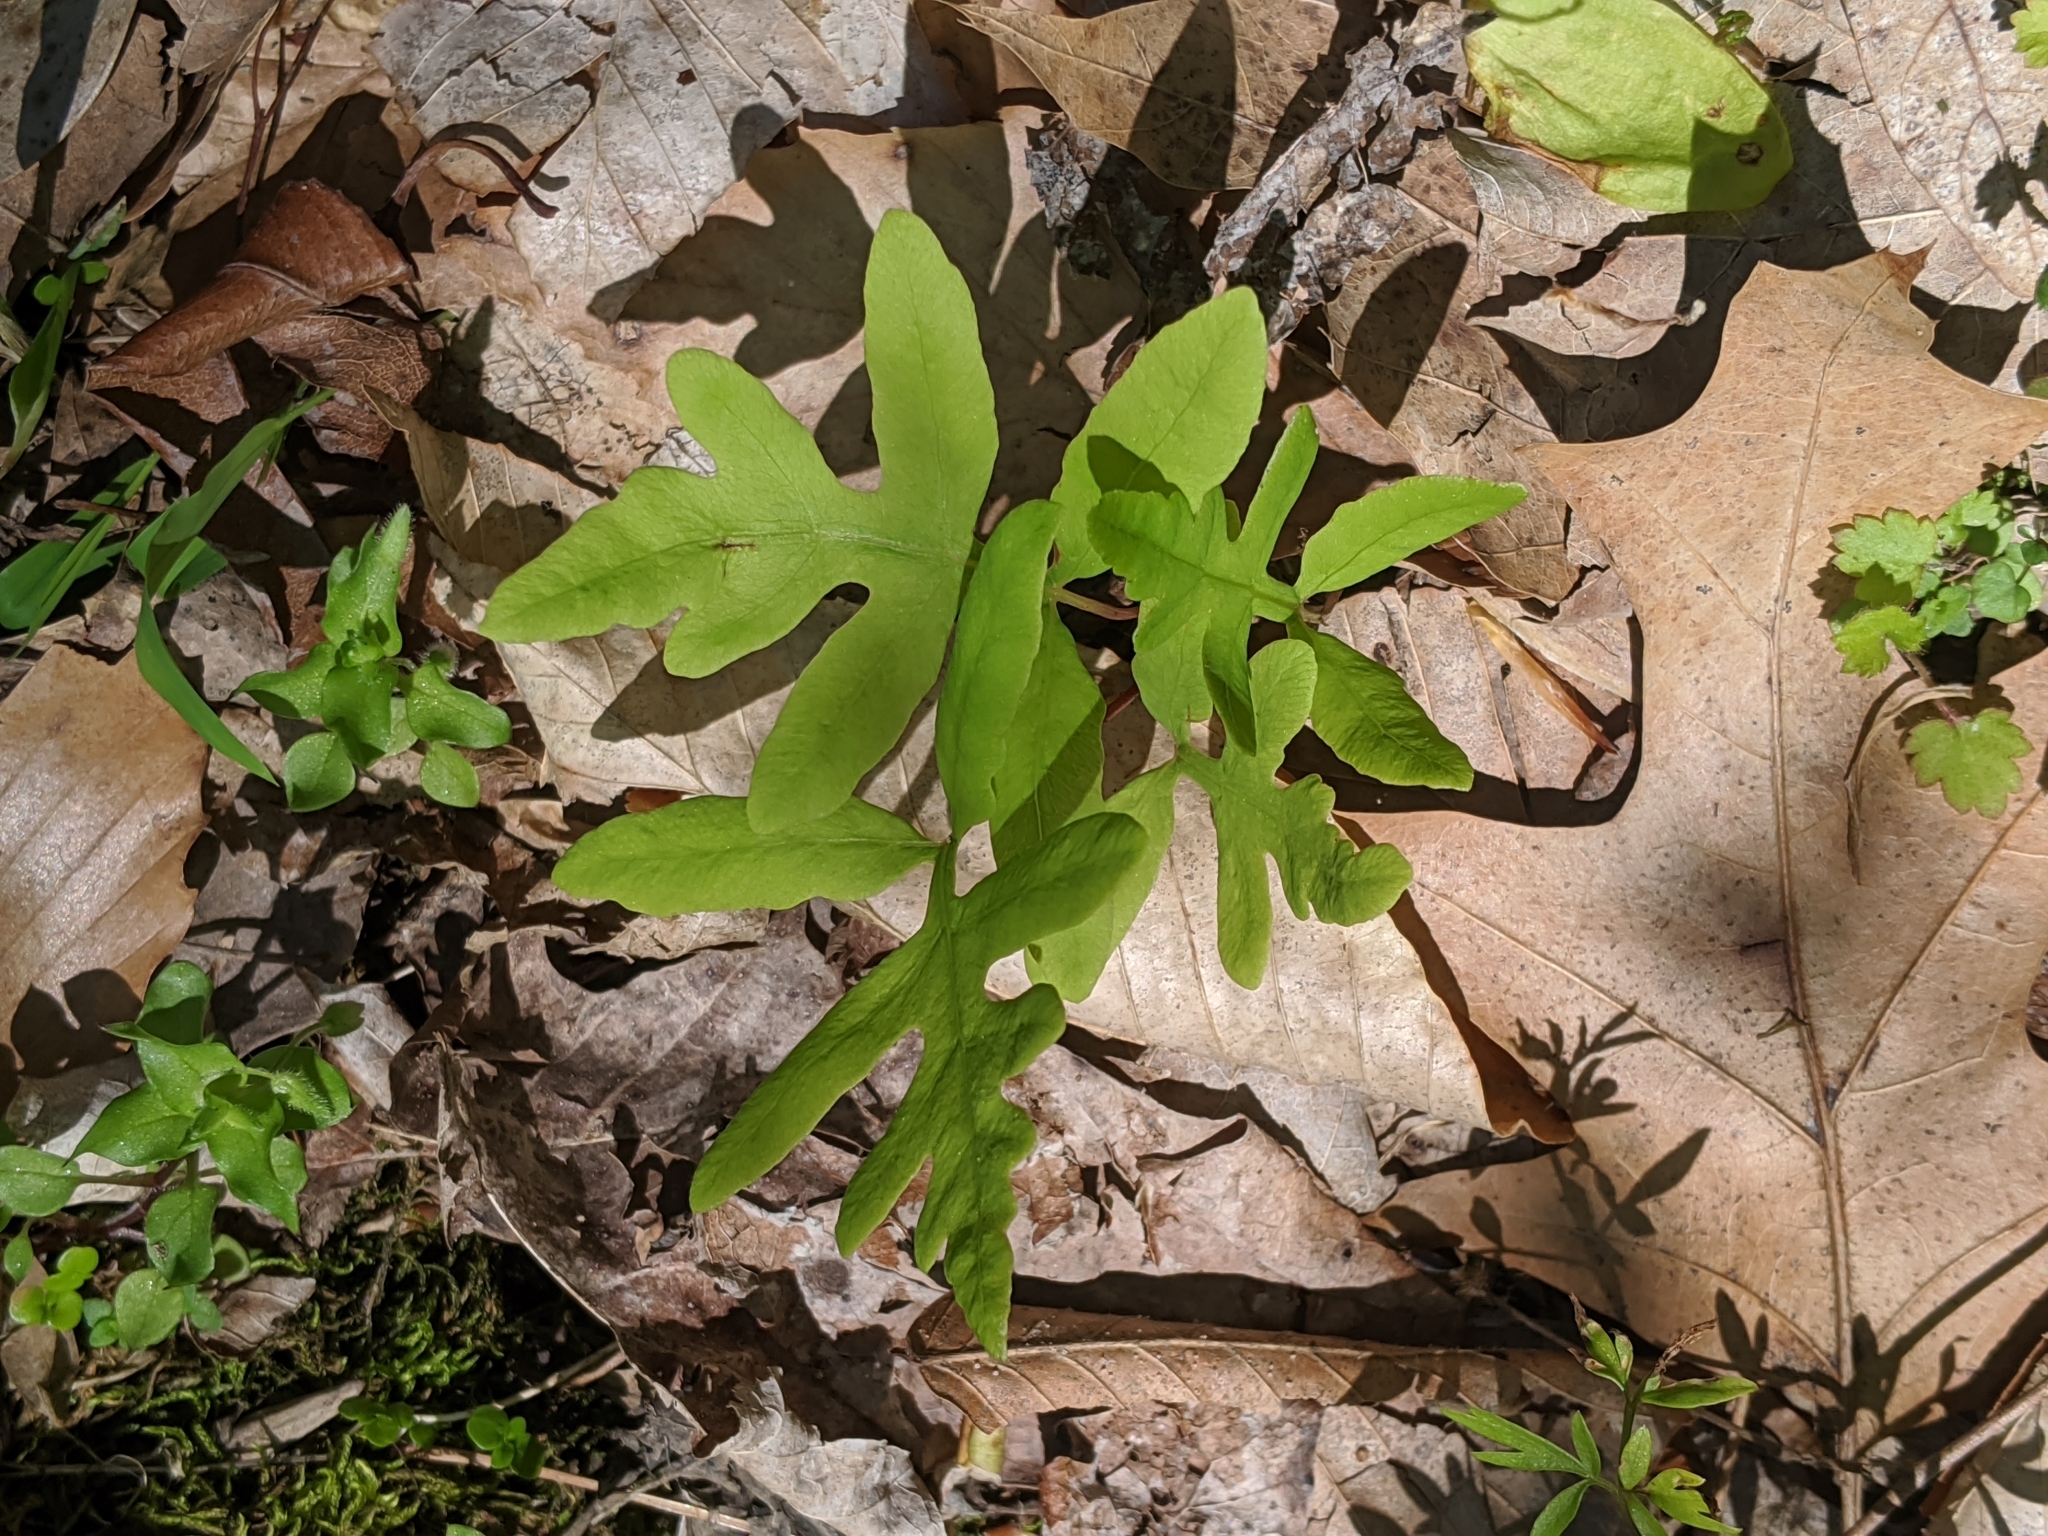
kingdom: Plantae
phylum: Tracheophyta
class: Polypodiopsida
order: Polypodiales
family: Onocleaceae
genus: Onoclea
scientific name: Onoclea sensibilis
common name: Sensitive fern
